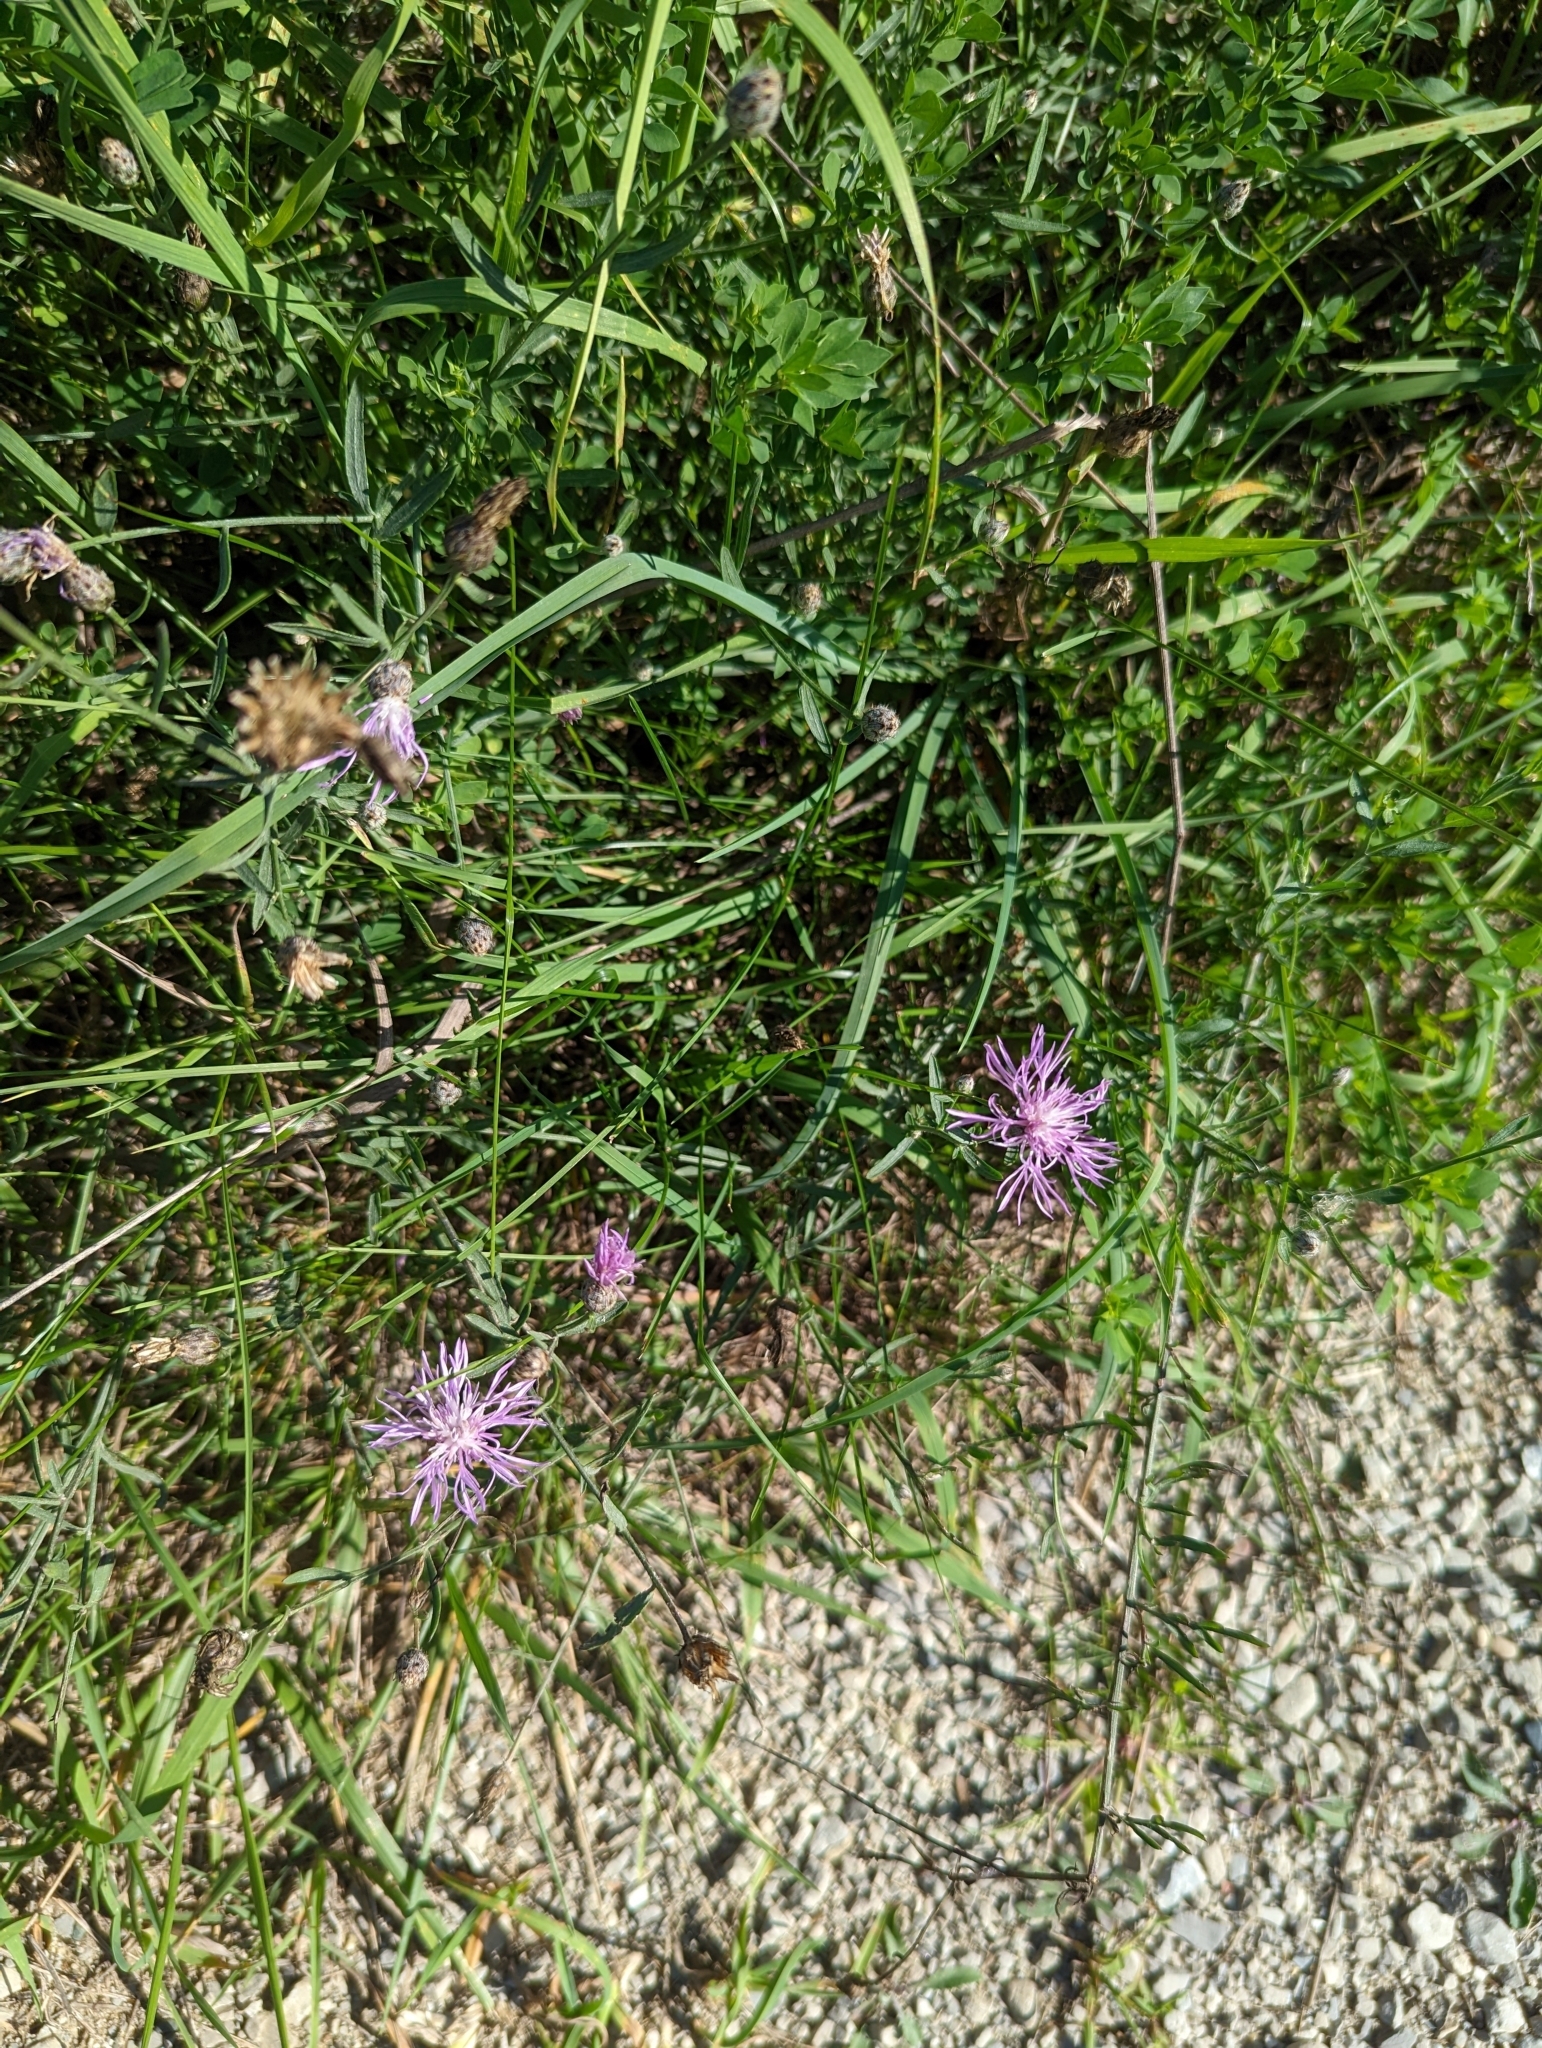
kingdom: Plantae
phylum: Tracheophyta
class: Magnoliopsida
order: Asterales
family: Asteraceae
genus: Centaurea
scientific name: Centaurea stoebe
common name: Spotted knapweed
